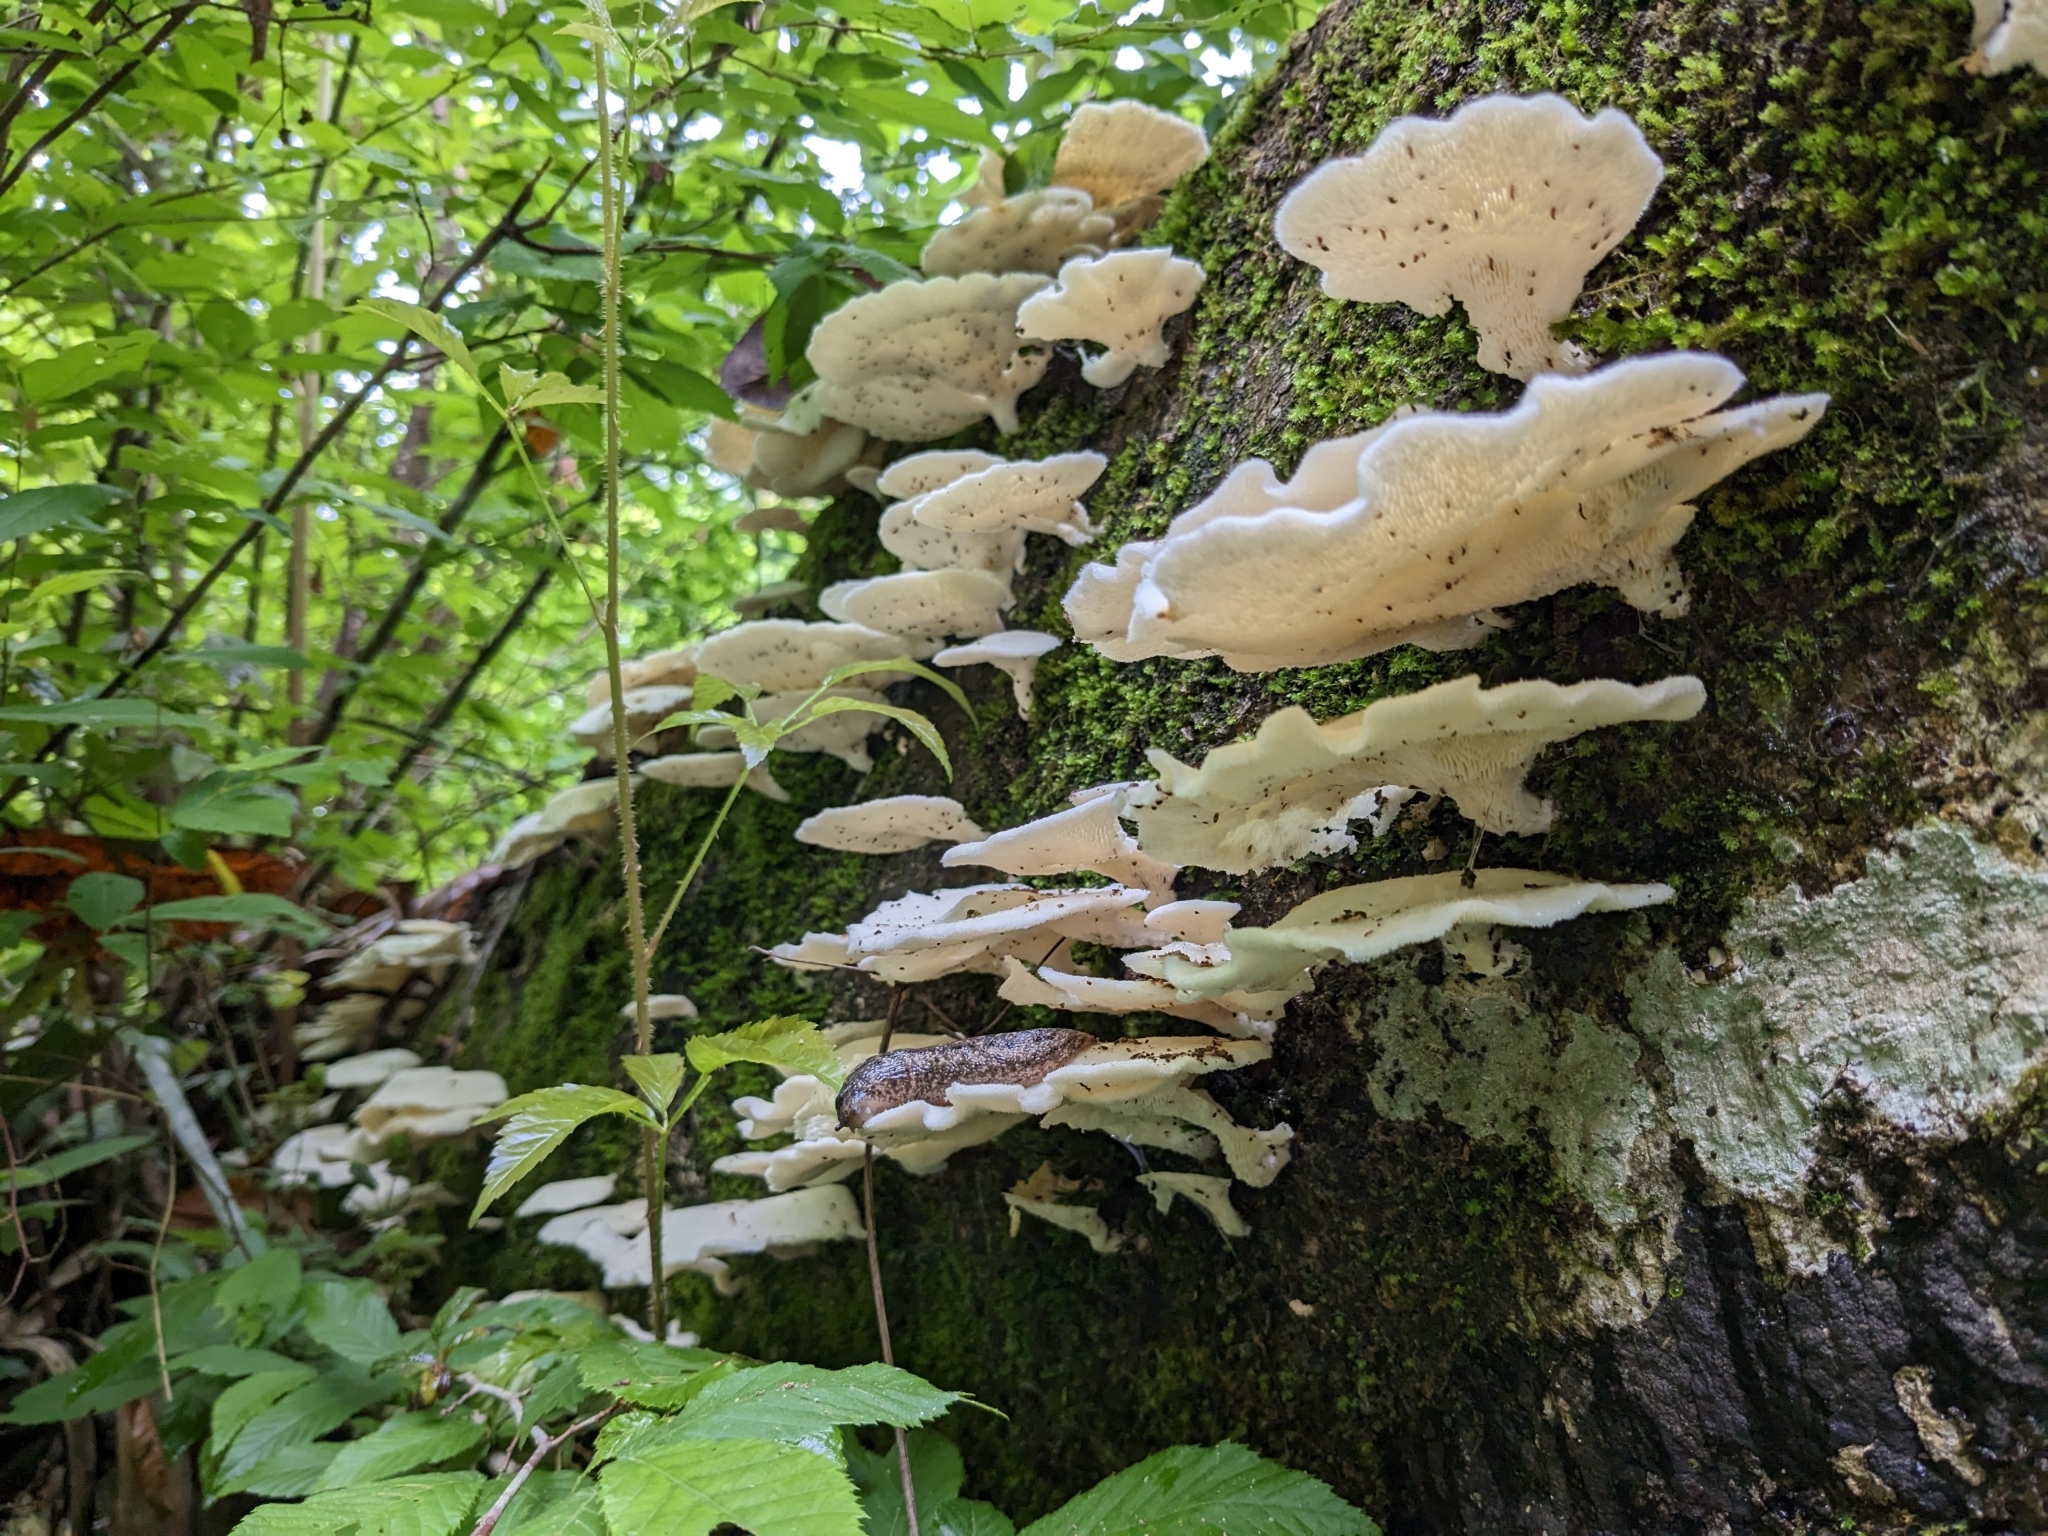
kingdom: Fungi
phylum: Basidiomycota
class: Agaricomycetes
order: Polyporales
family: Polyporaceae
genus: Favolus
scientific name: Favolus tenuiculus
